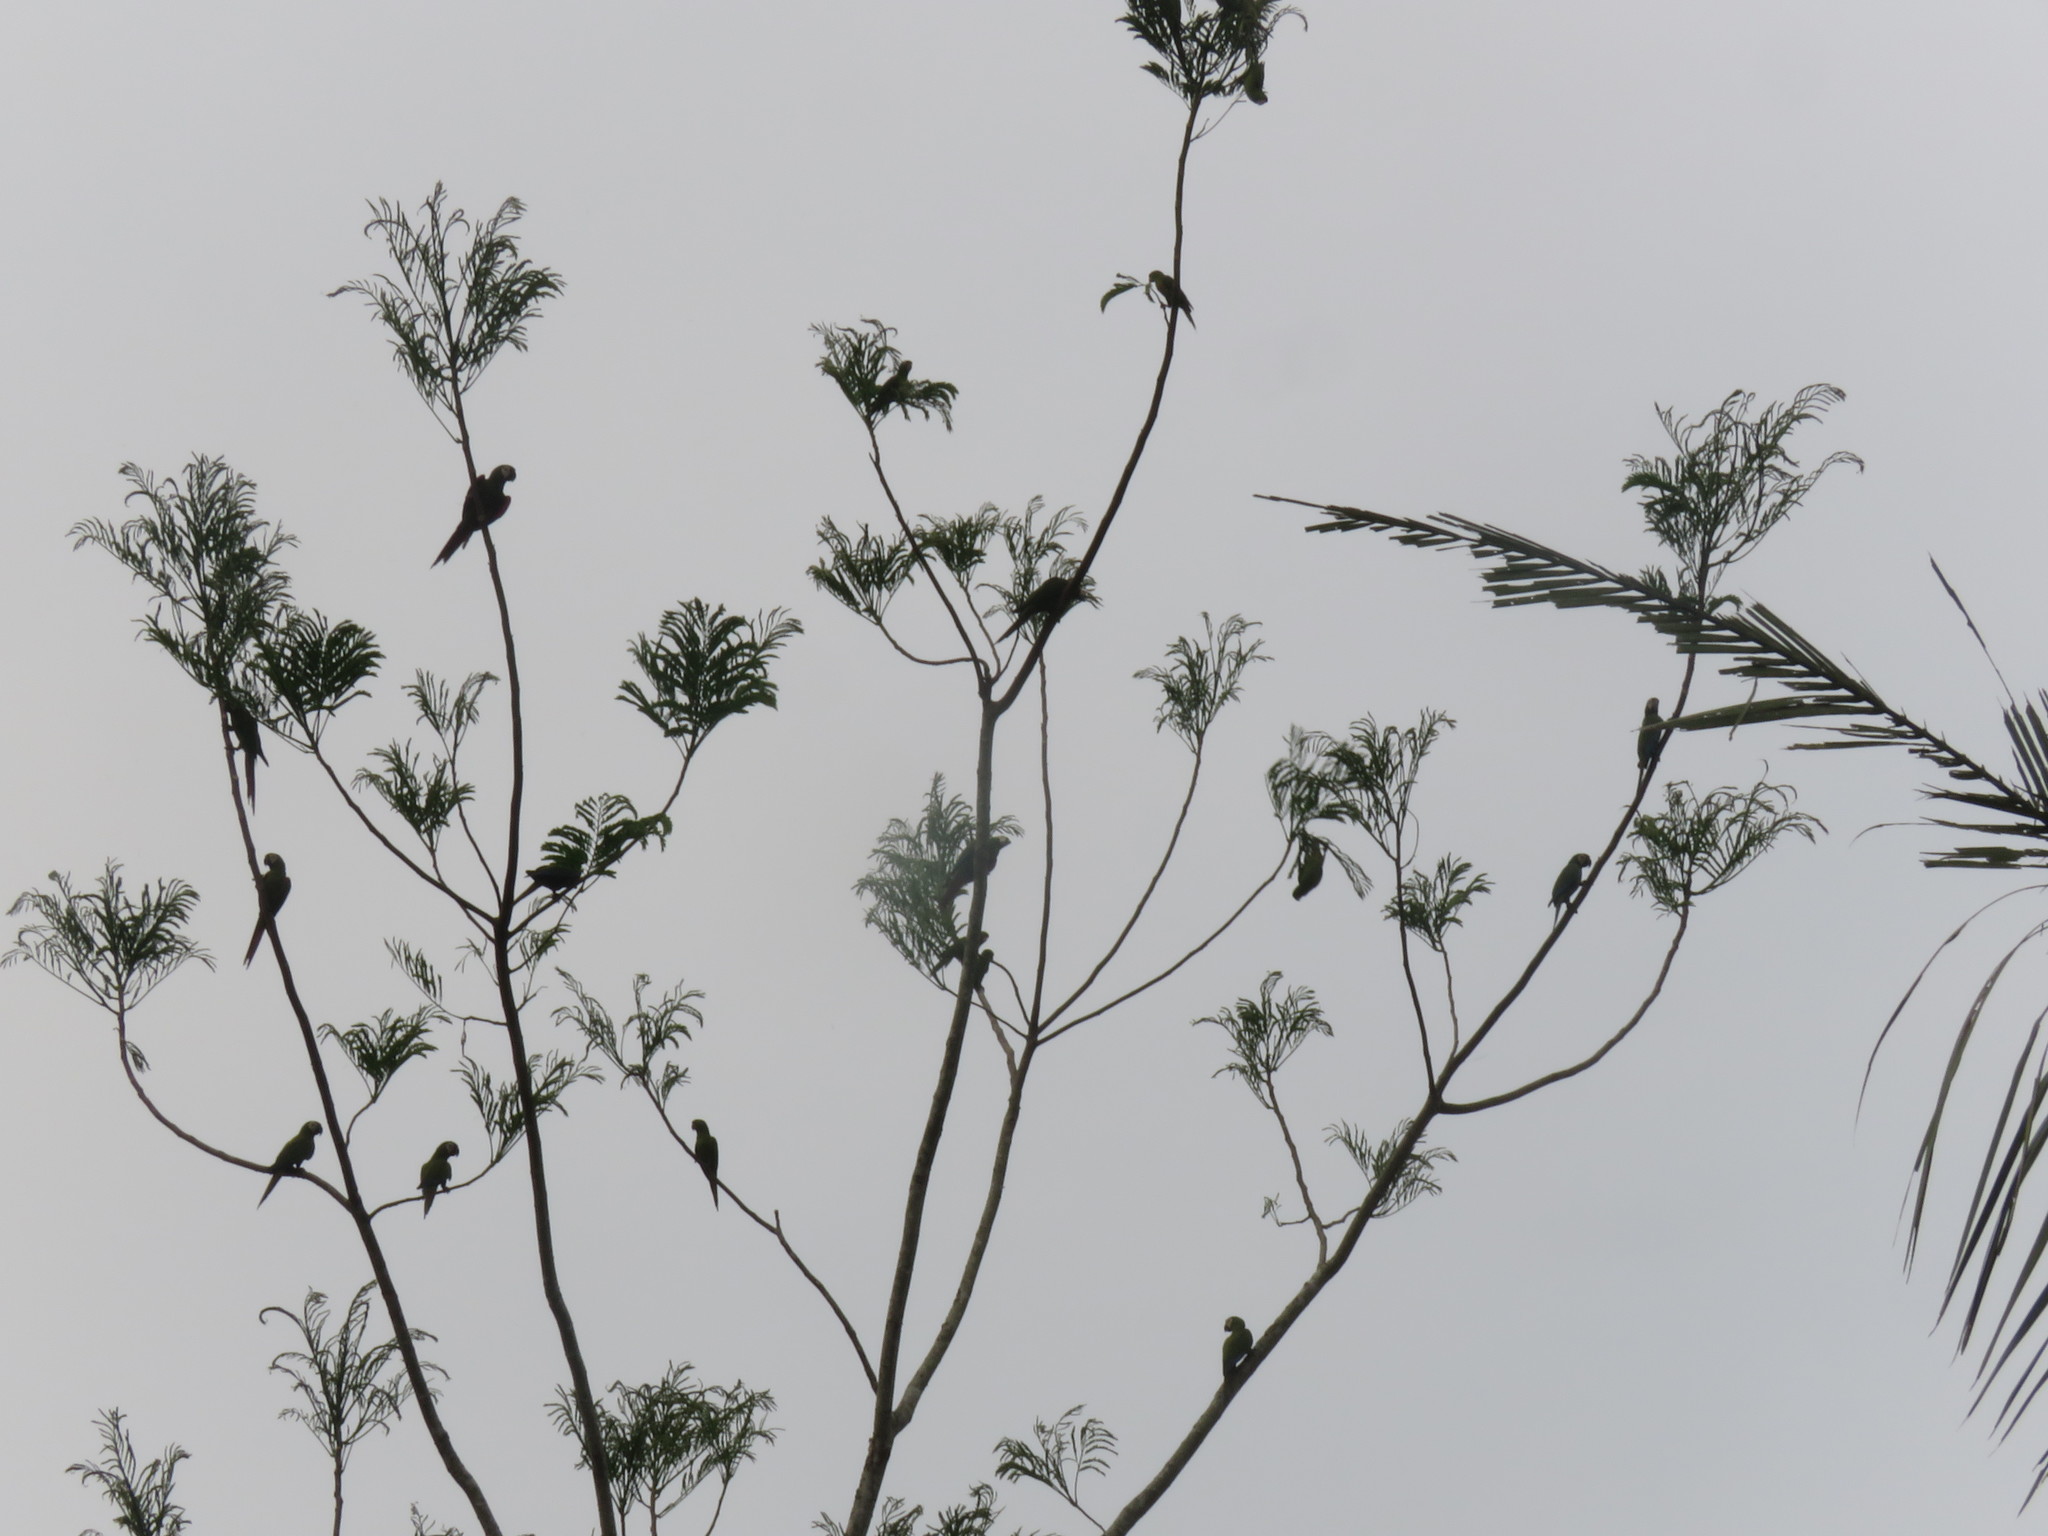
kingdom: Animalia
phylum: Chordata
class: Aves
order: Psittaciformes
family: Psittacidae
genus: Ara
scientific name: Ara severus
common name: Chestnut-fronted macaw
